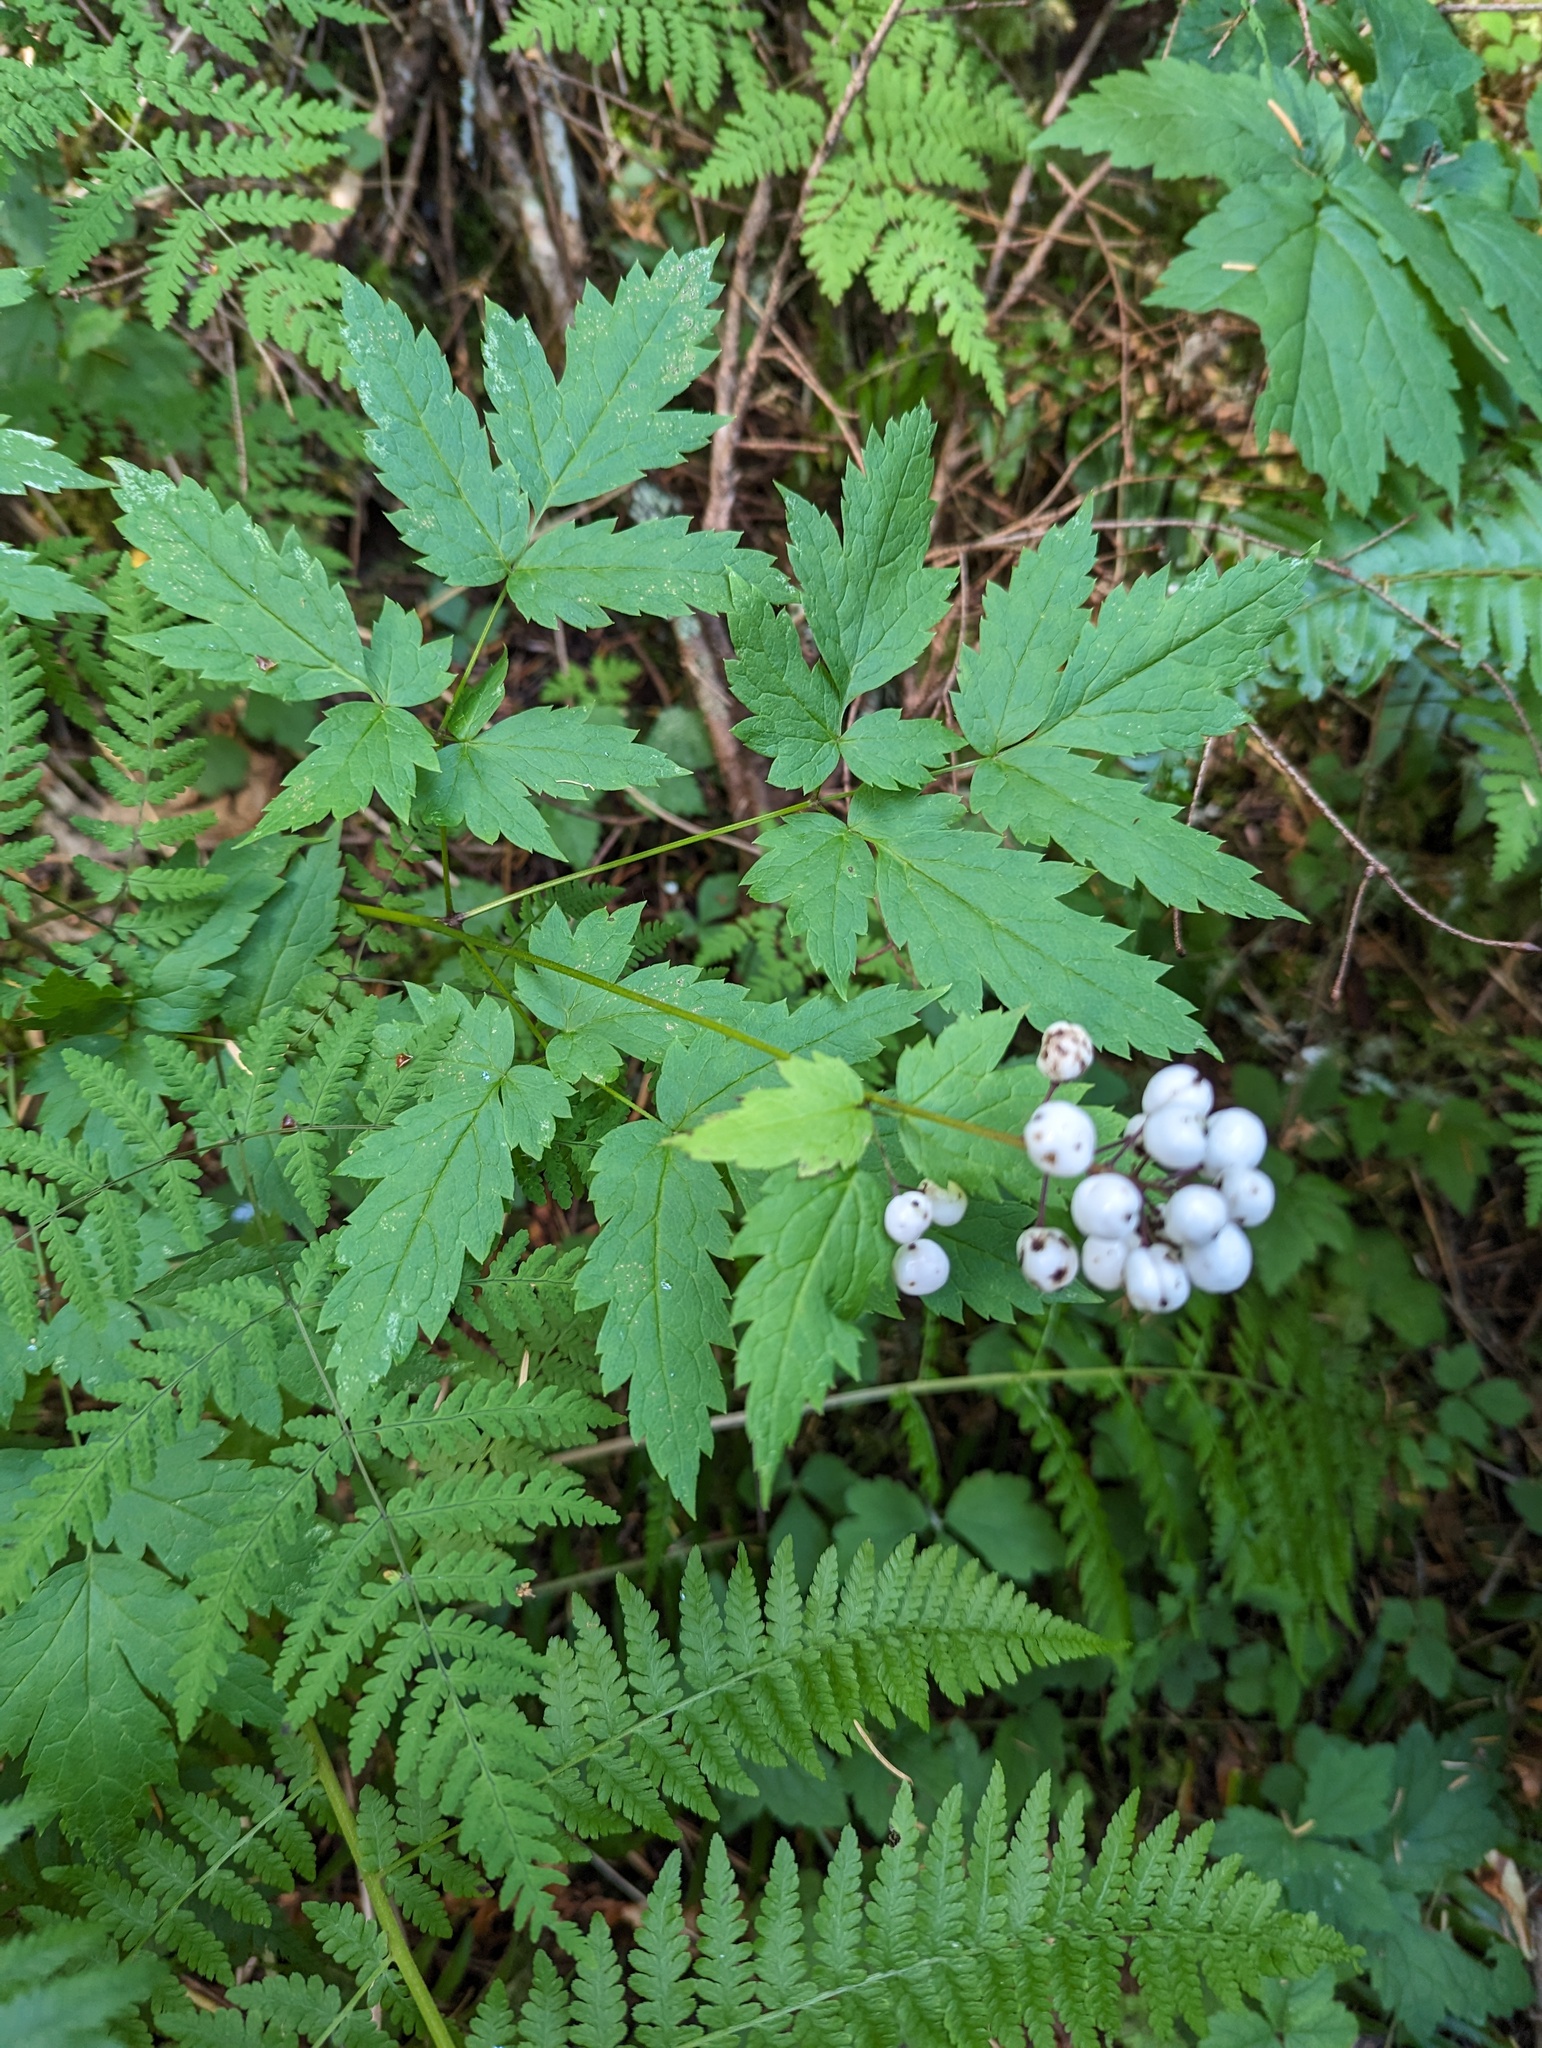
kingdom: Plantae
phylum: Tracheophyta
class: Magnoliopsida
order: Ranunculales
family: Ranunculaceae
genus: Actaea
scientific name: Actaea rubra
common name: Red baneberry
